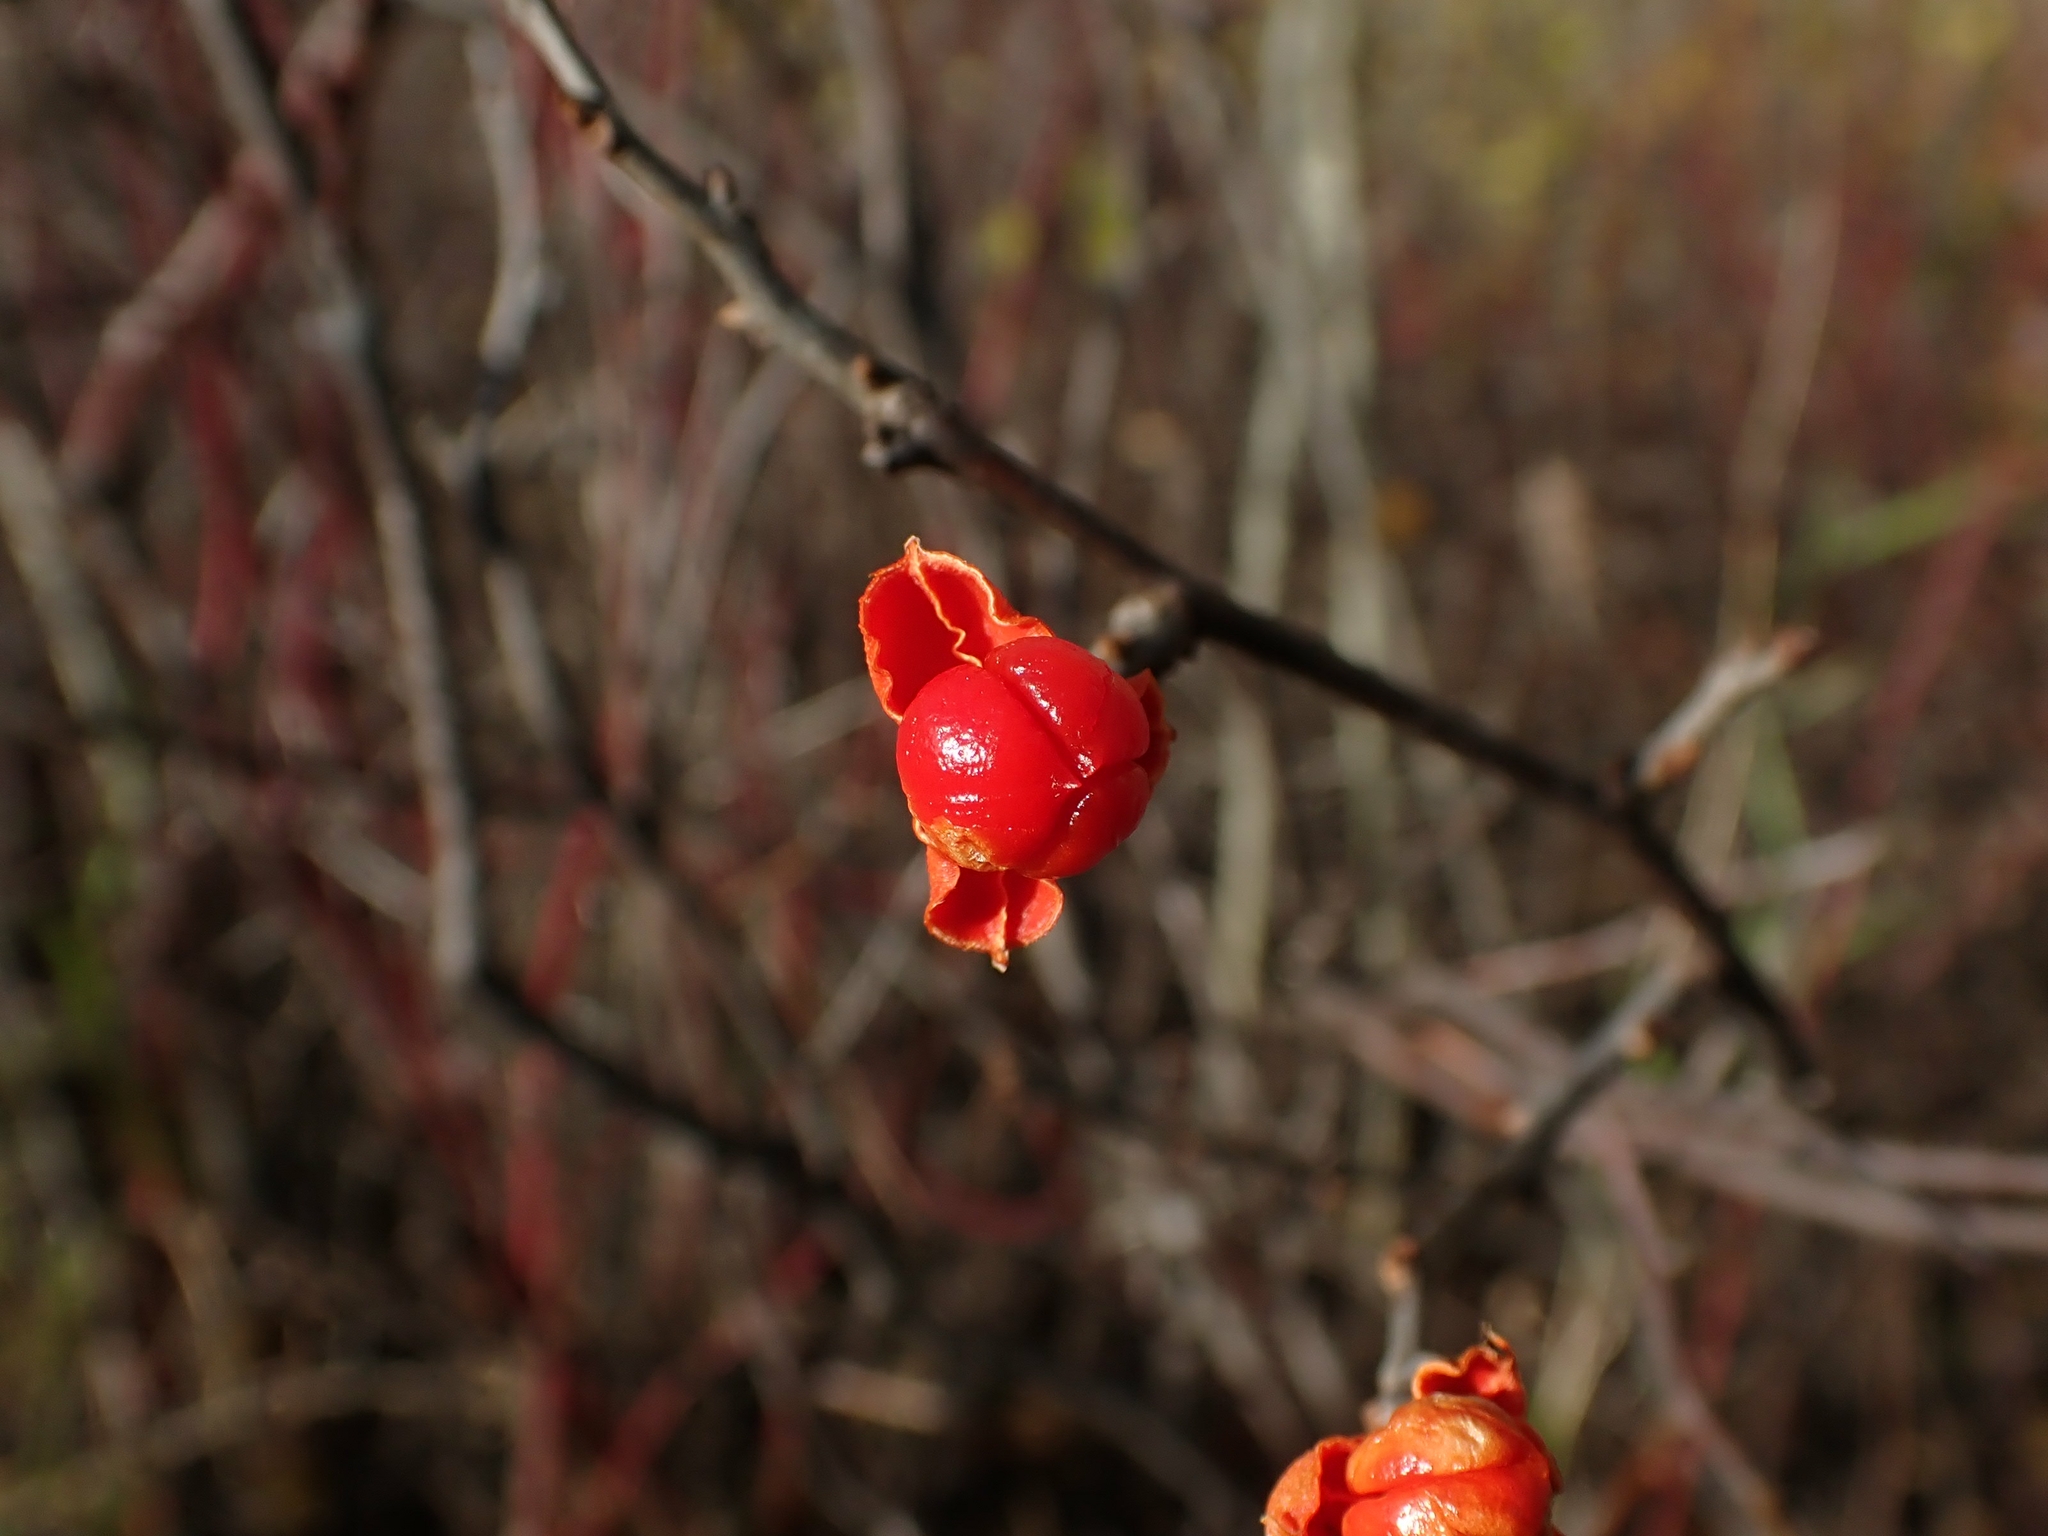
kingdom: Plantae
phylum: Tracheophyta
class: Magnoliopsida
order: Celastrales
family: Celastraceae
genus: Celastrus
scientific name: Celastrus scandens
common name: American bittersweet
